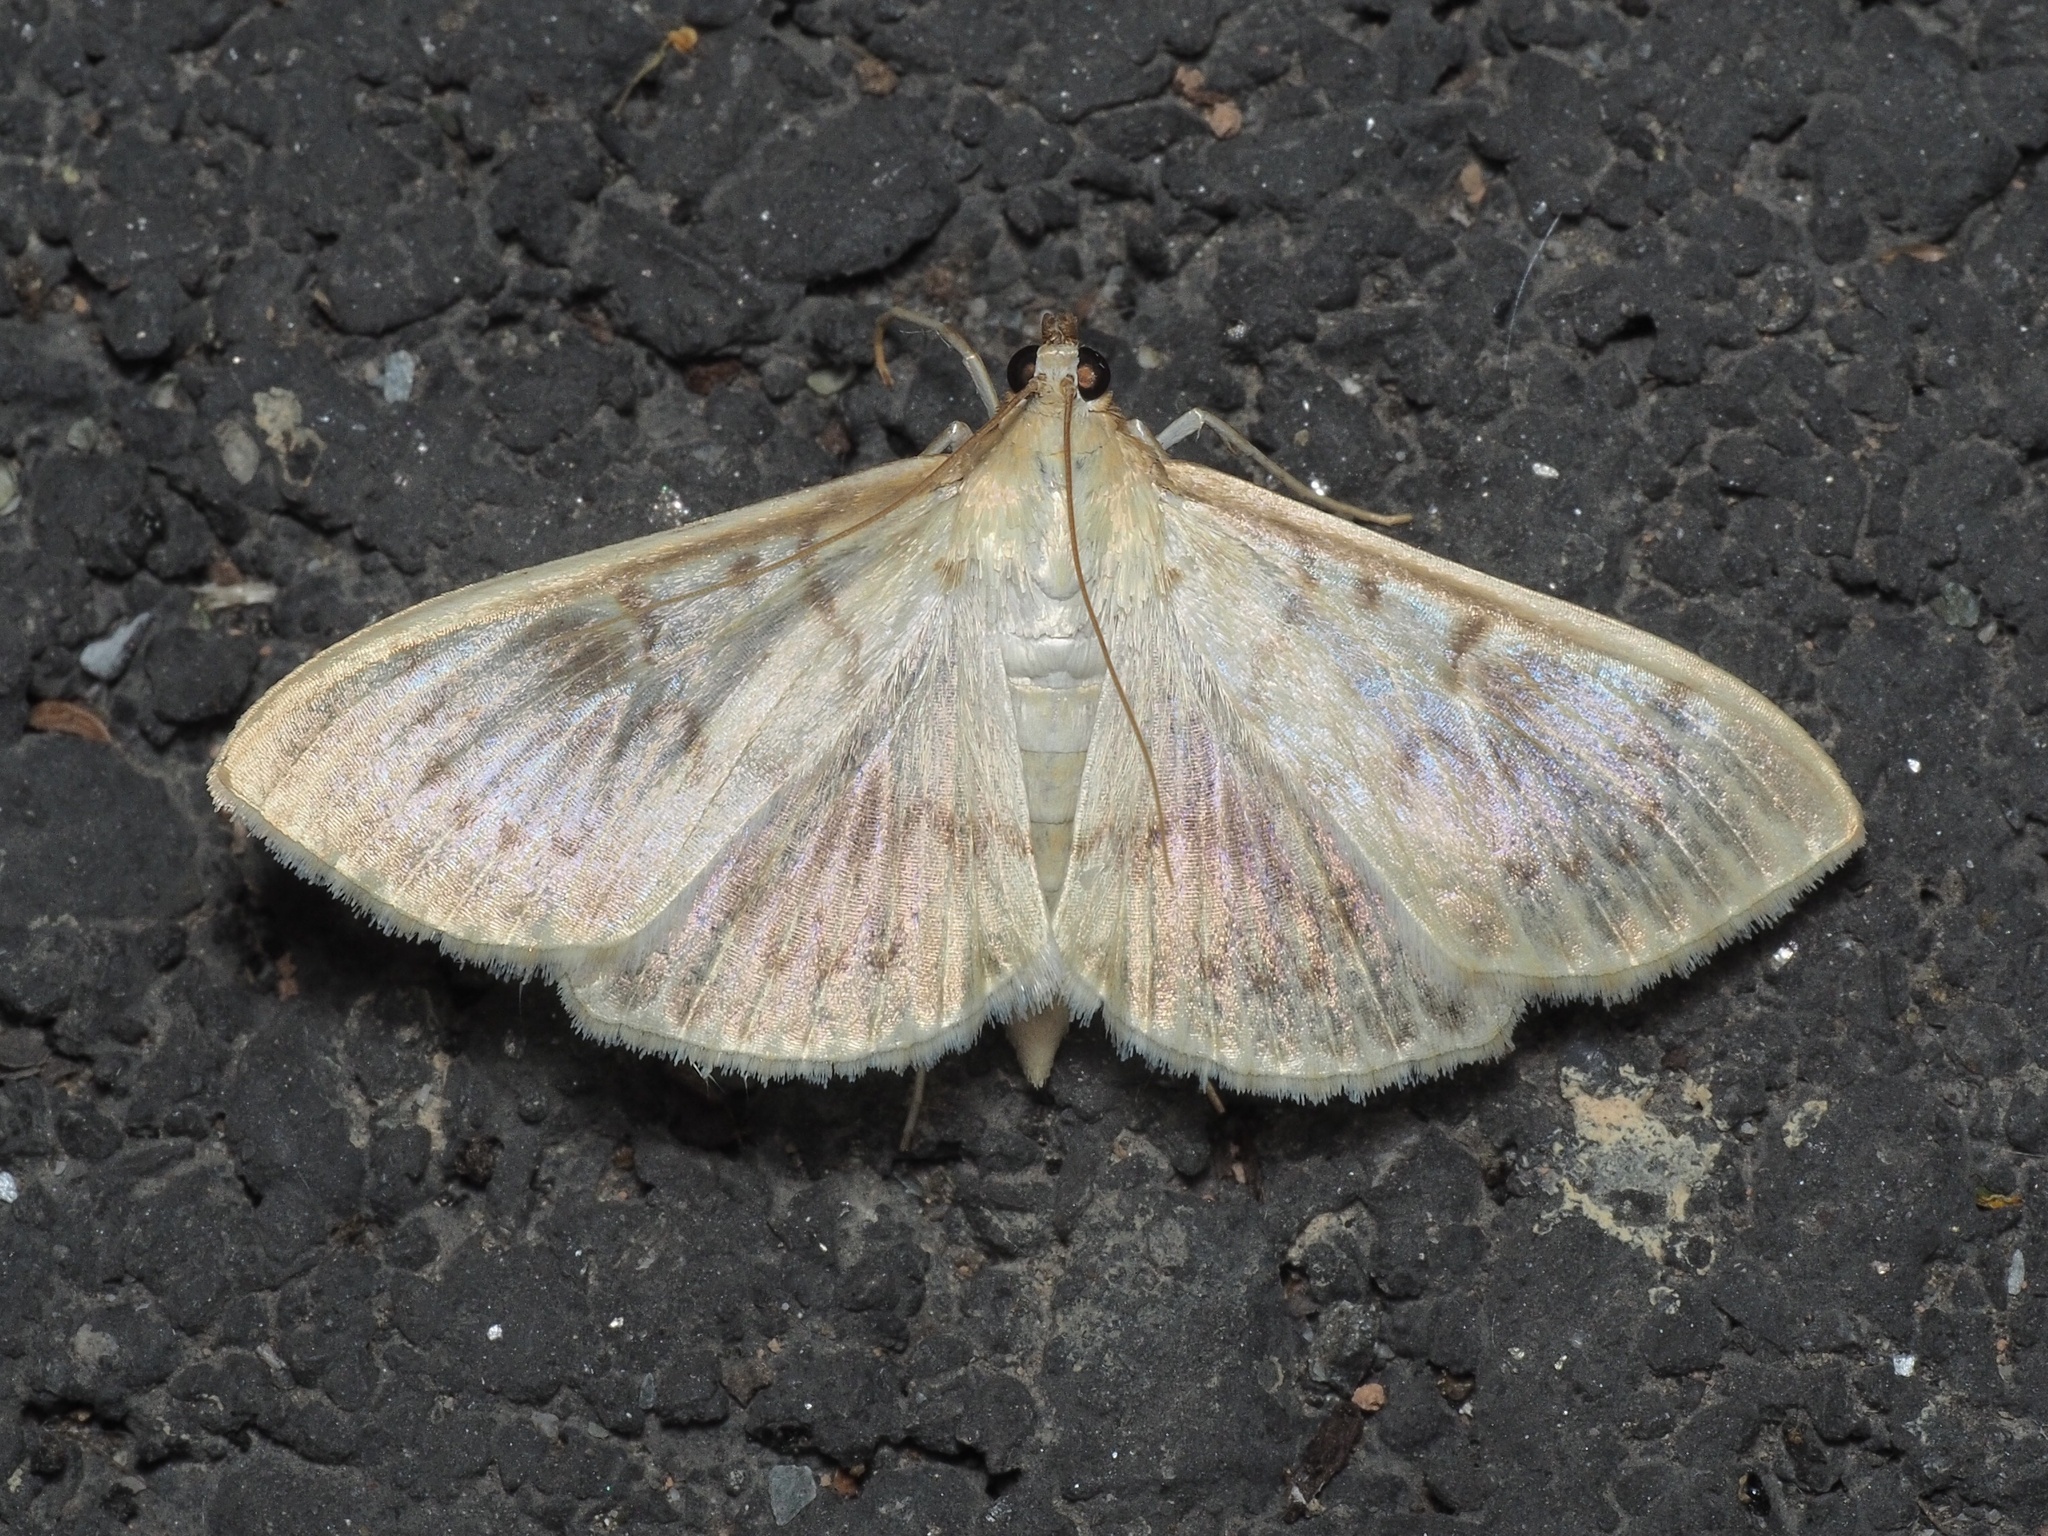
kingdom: Animalia
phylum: Arthropoda
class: Insecta
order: Lepidoptera
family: Crambidae
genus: Patania
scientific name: Patania ruralis
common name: Mother of pearl
